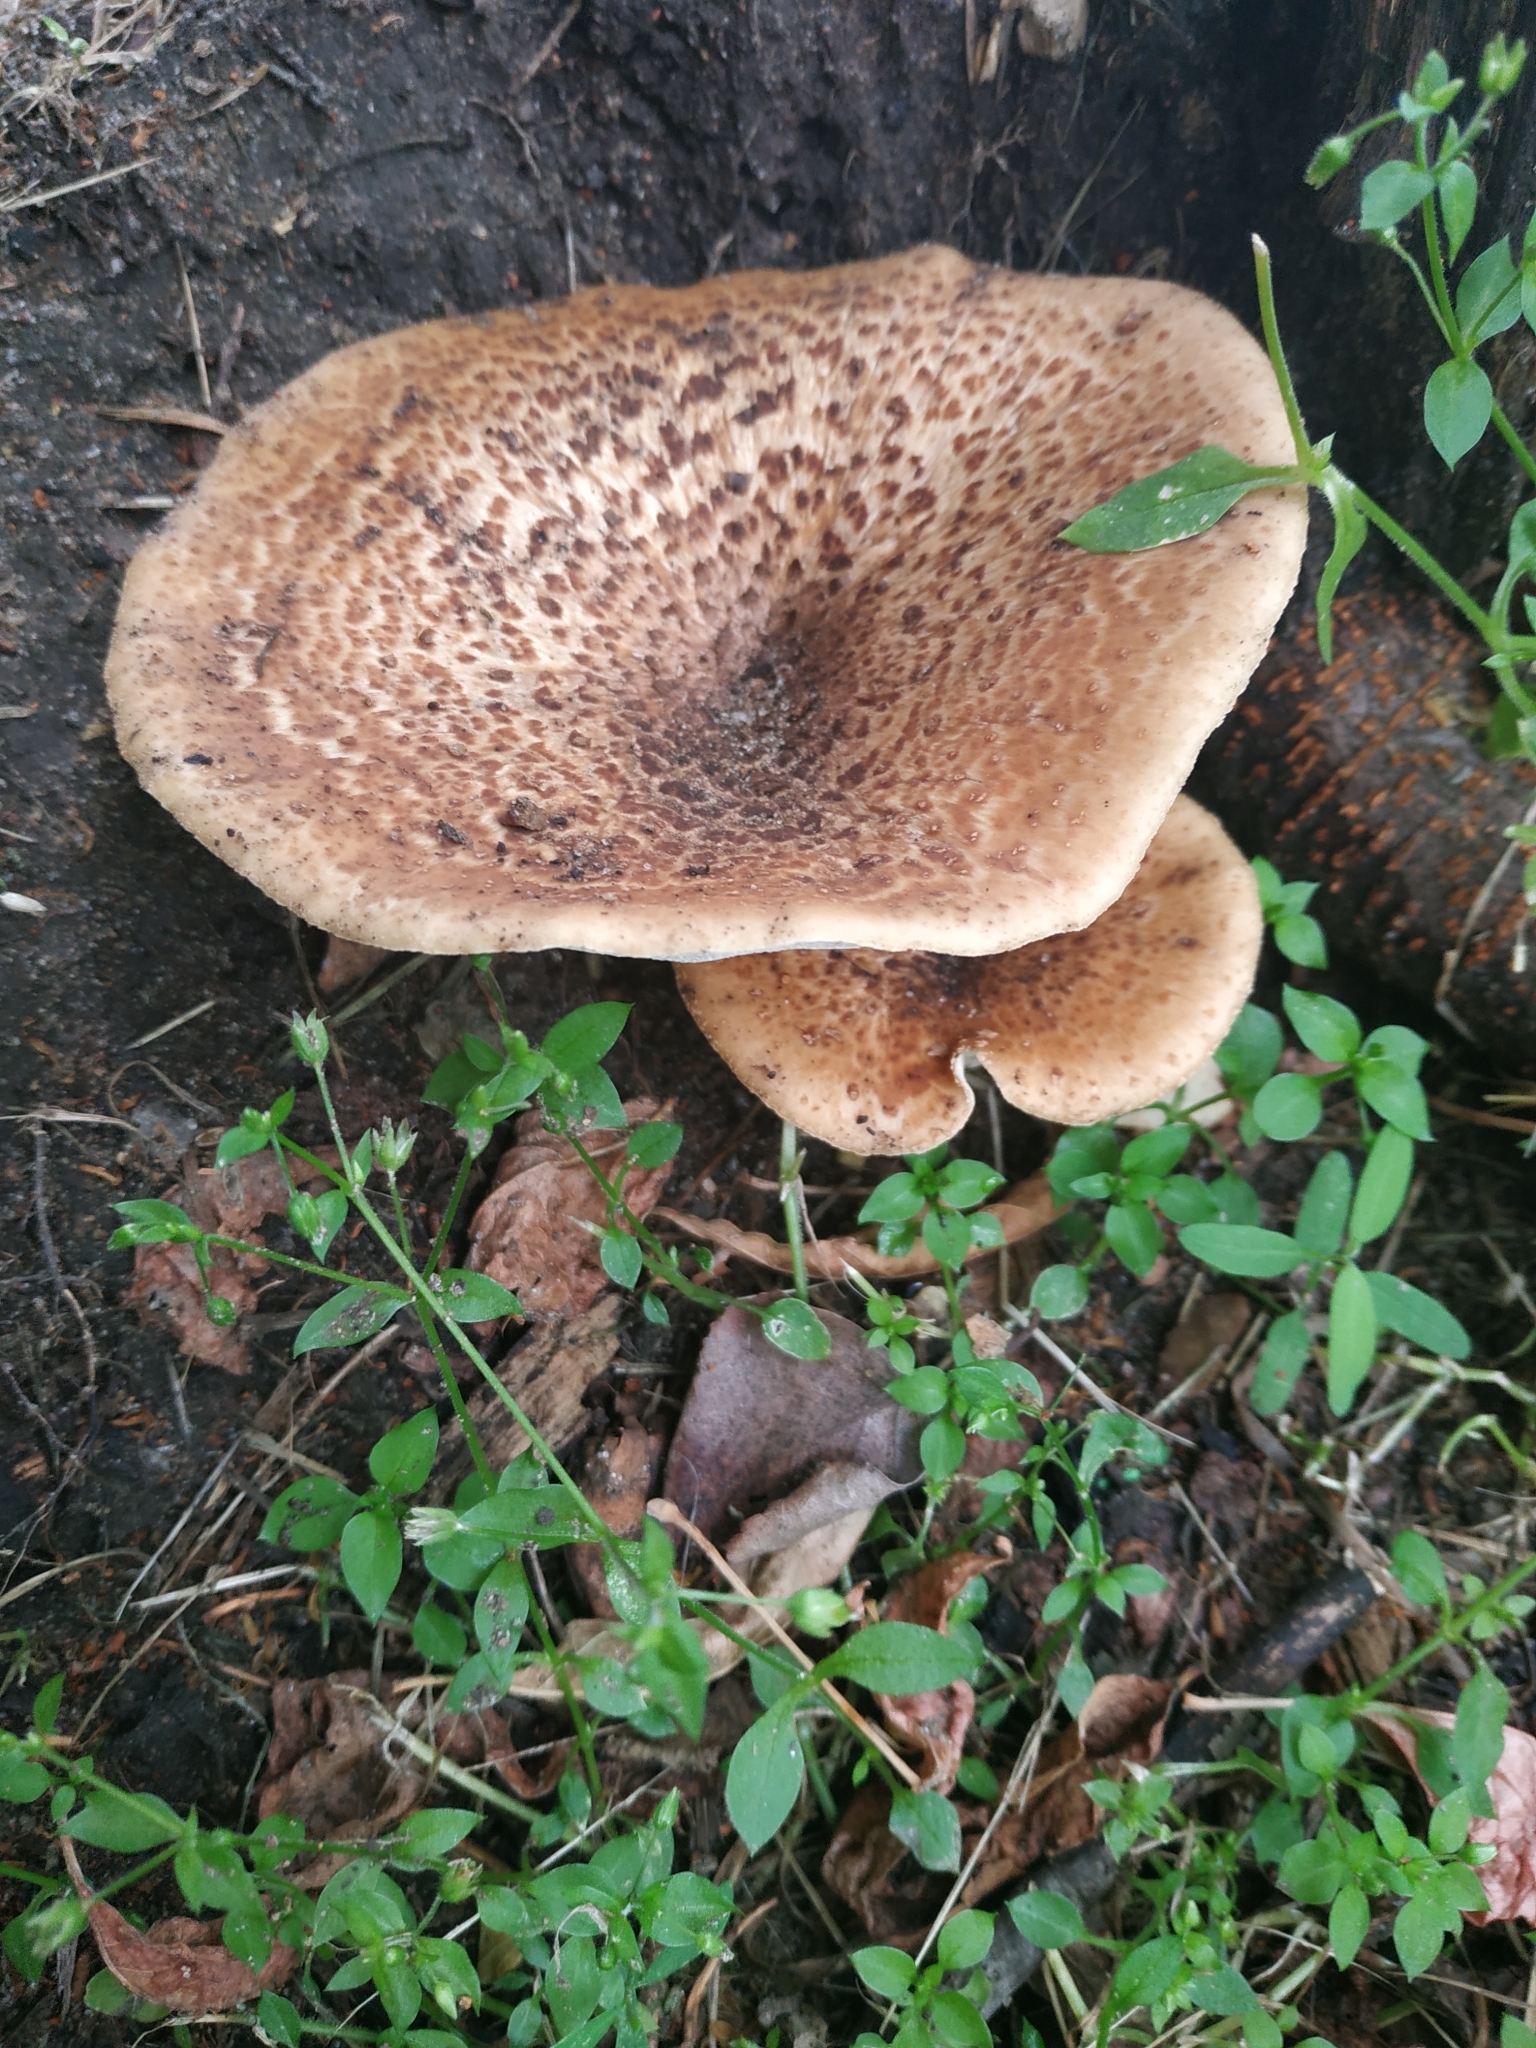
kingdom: Fungi
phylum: Basidiomycota
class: Agaricomycetes
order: Polyporales
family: Polyporaceae
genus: Cerioporus
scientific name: Cerioporus squamosus
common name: Dryad's saddle
